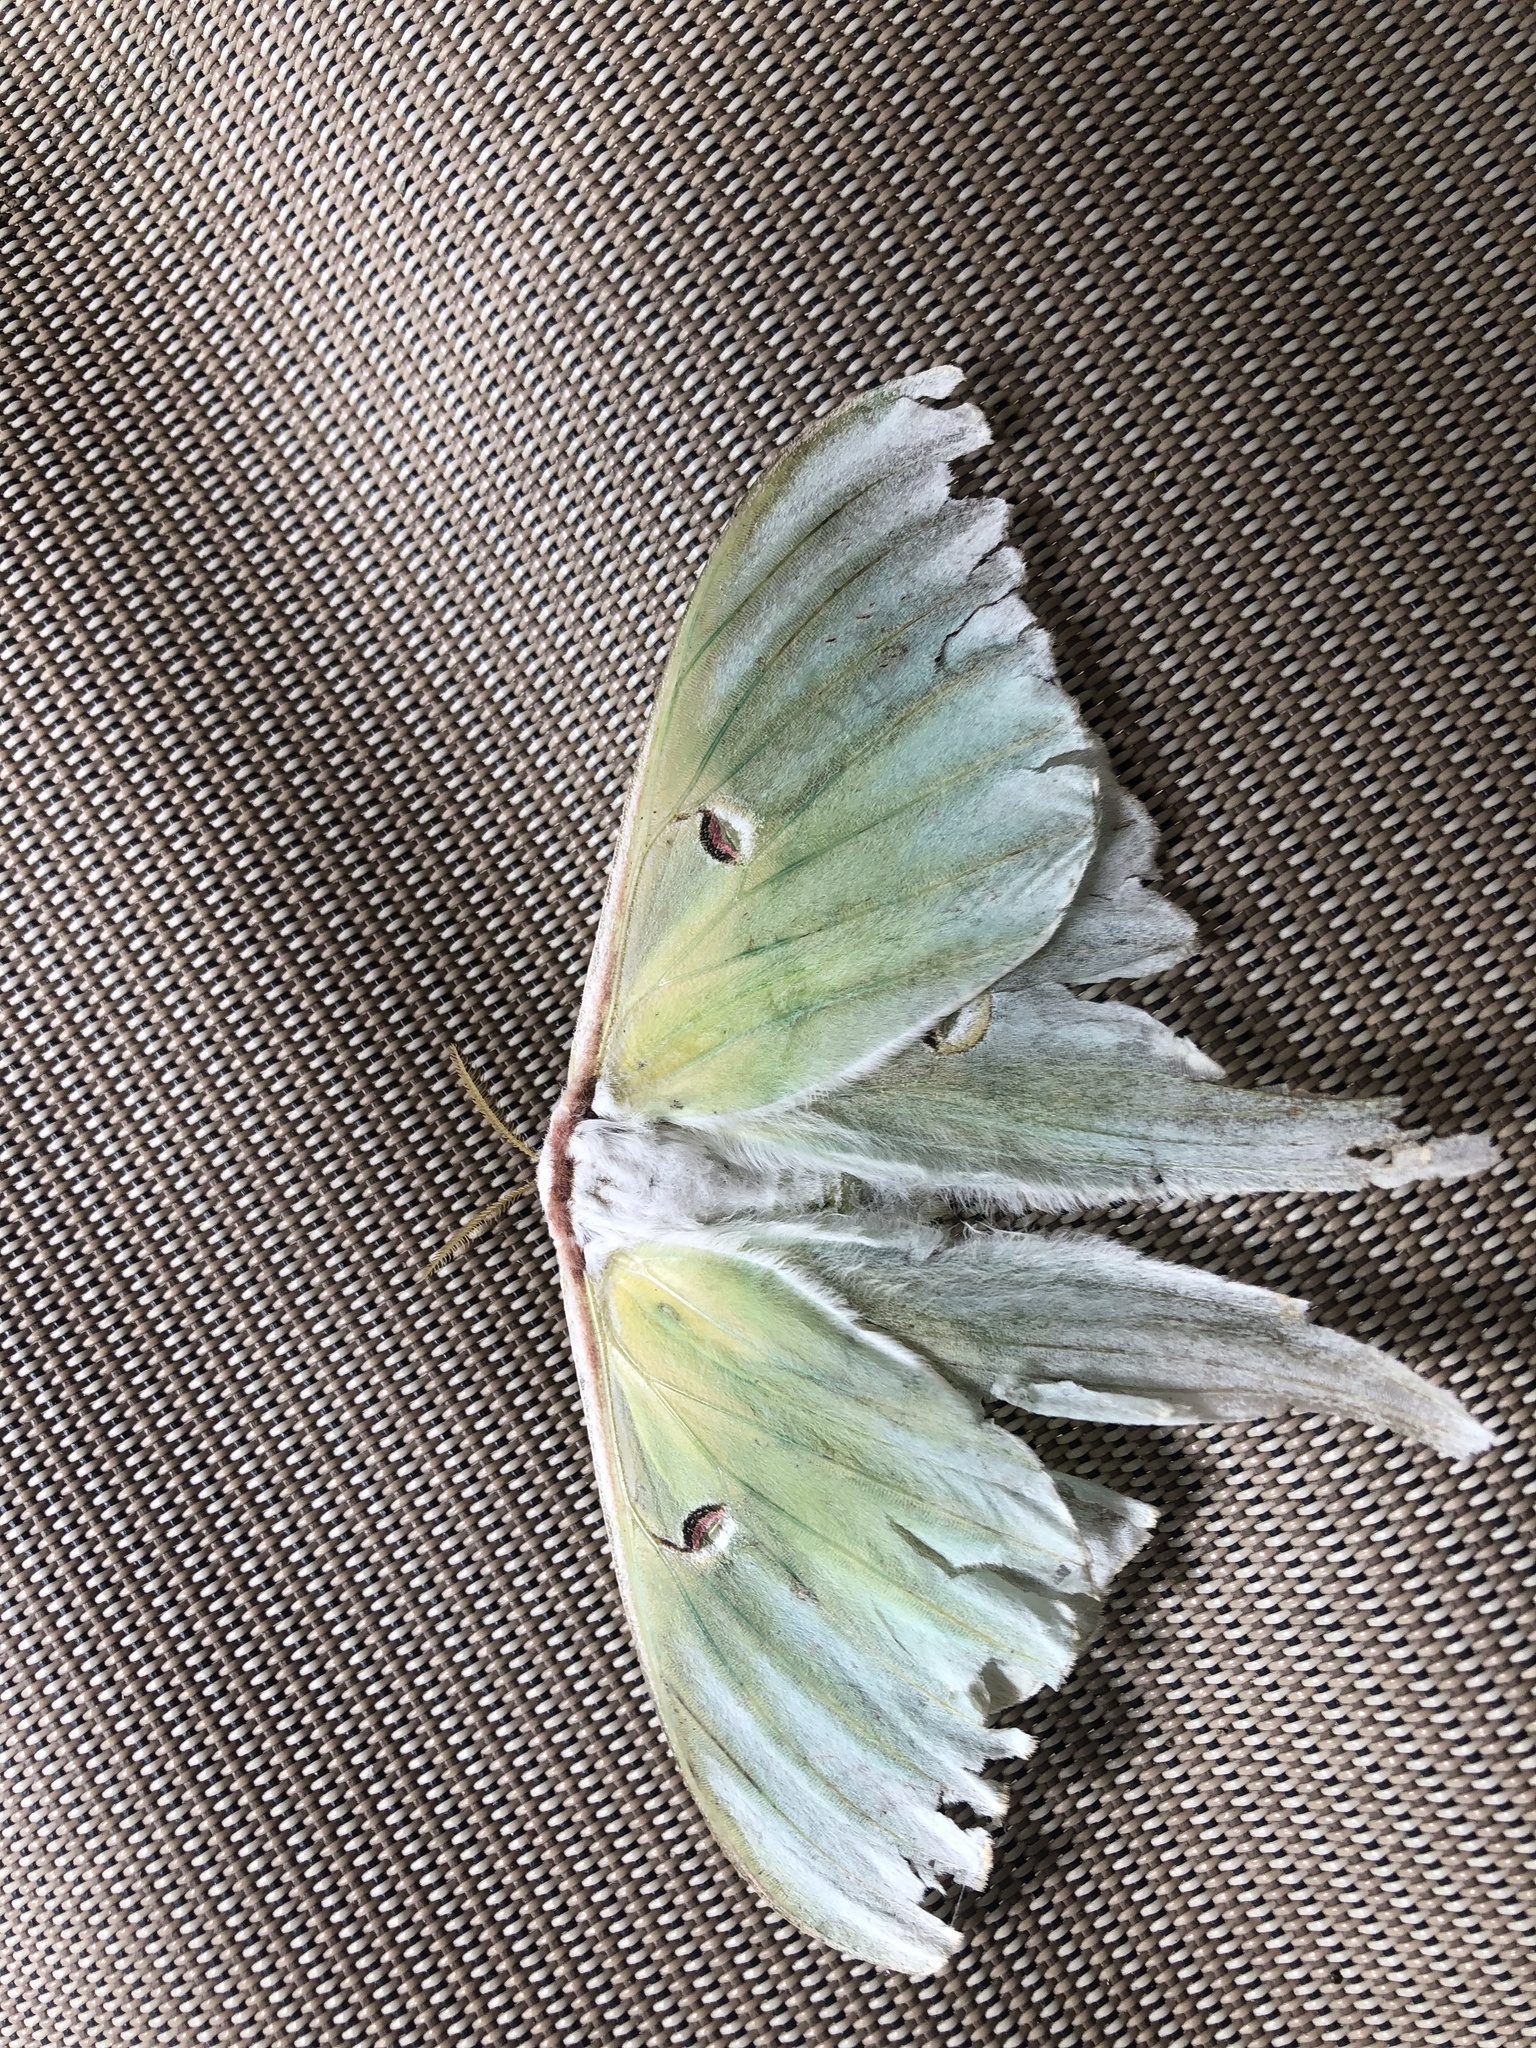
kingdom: Animalia
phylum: Arthropoda
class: Insecta
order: Lepidoptera
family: Saturniidae
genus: Actias
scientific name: Actias luna
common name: Luna moth
